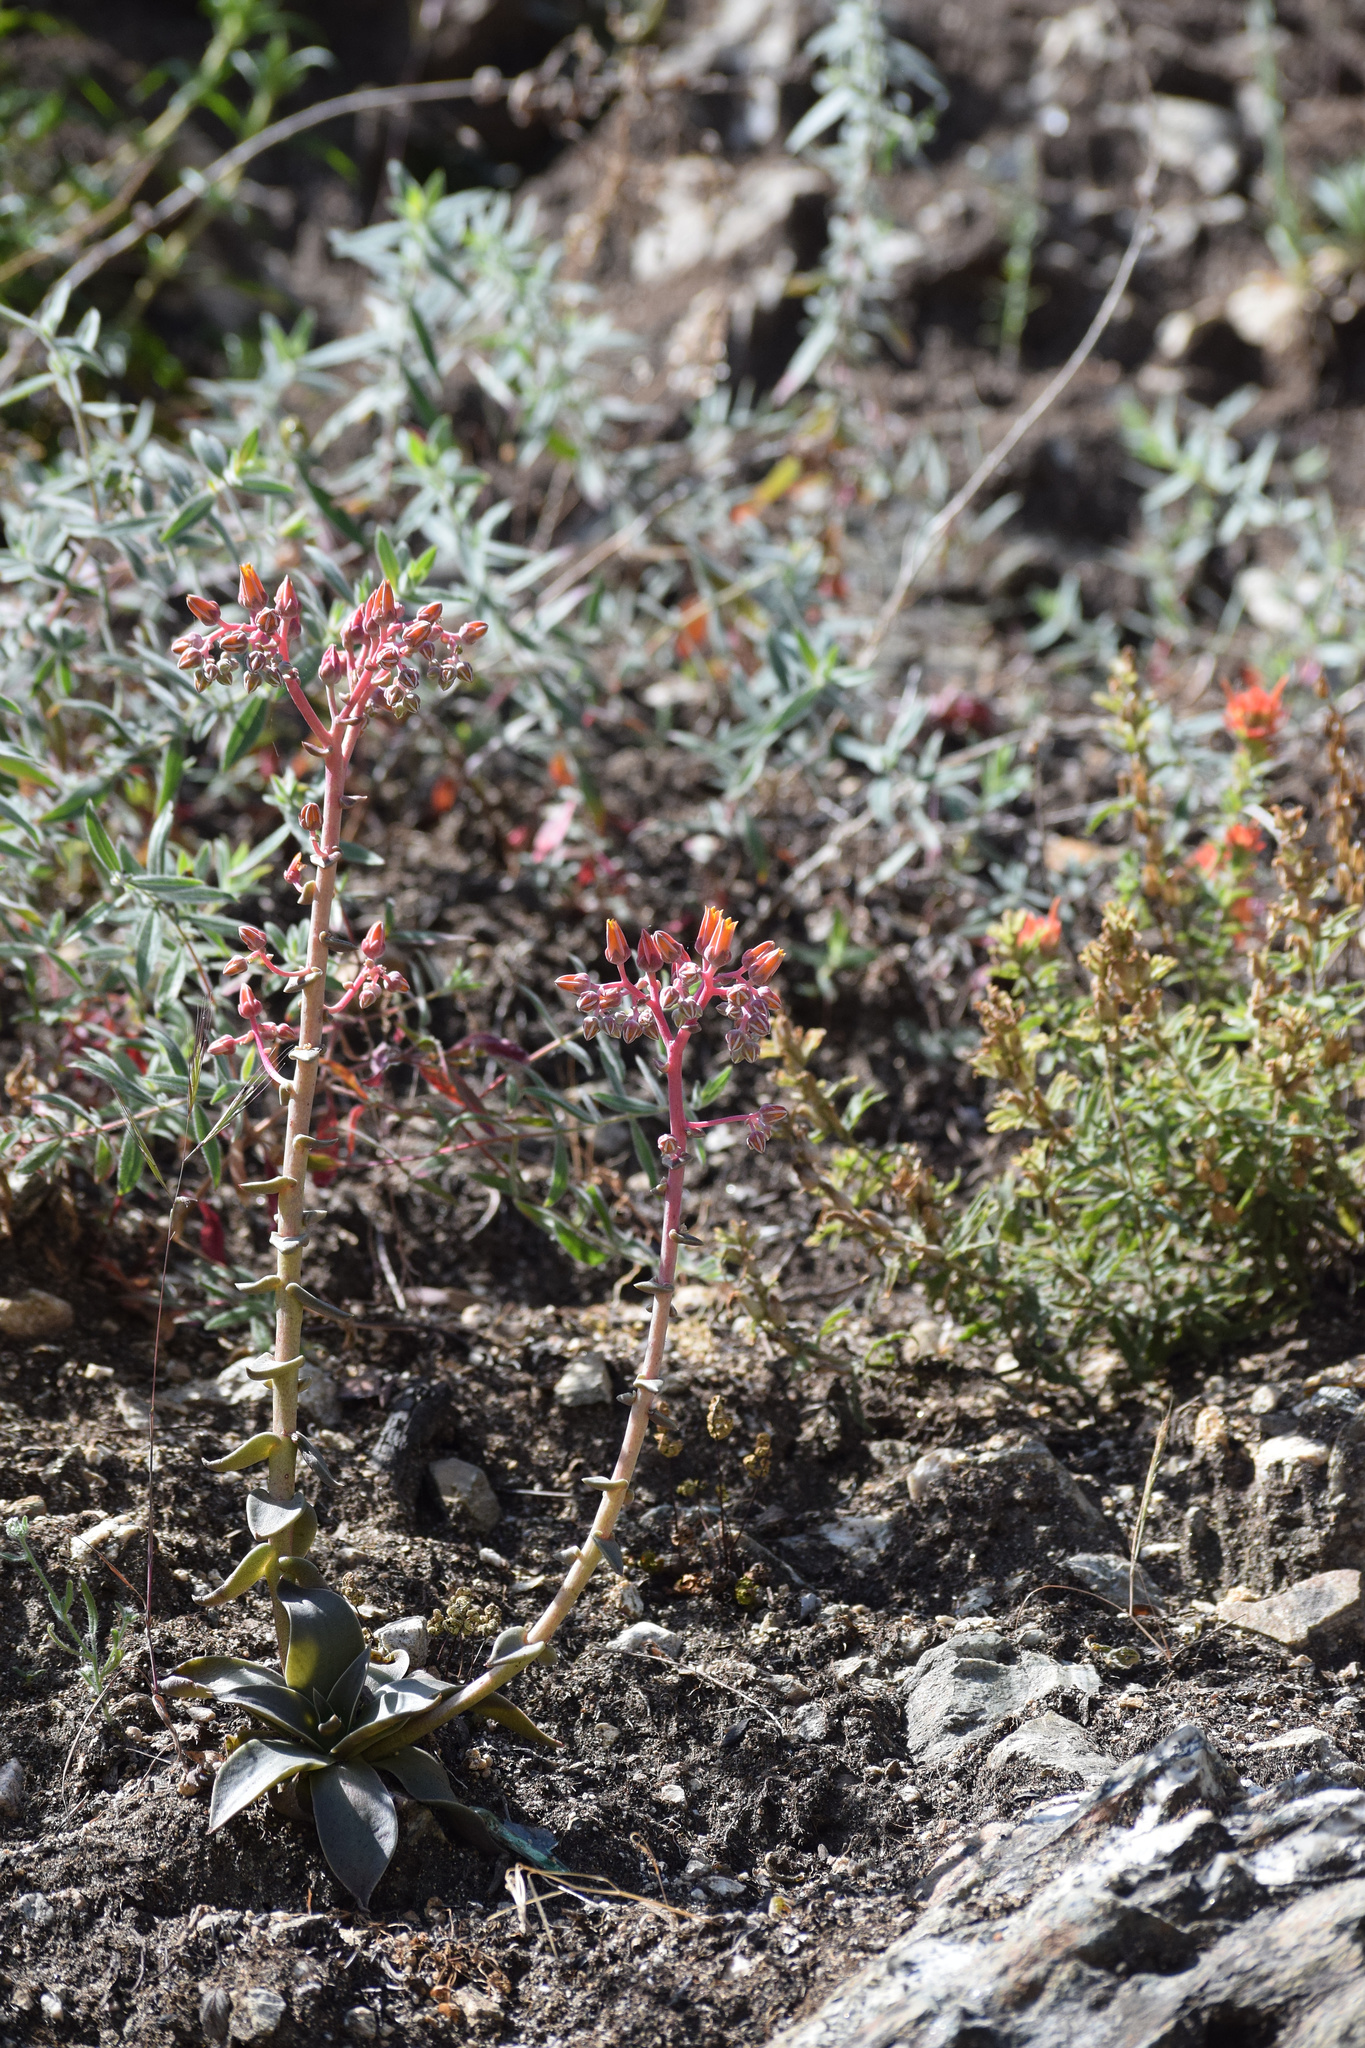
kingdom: Plantae
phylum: Tracheophyta
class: Magnoliopsida
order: Saxifragales
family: Crassulaceae
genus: Dudleya
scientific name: Dudleya lanceolata
